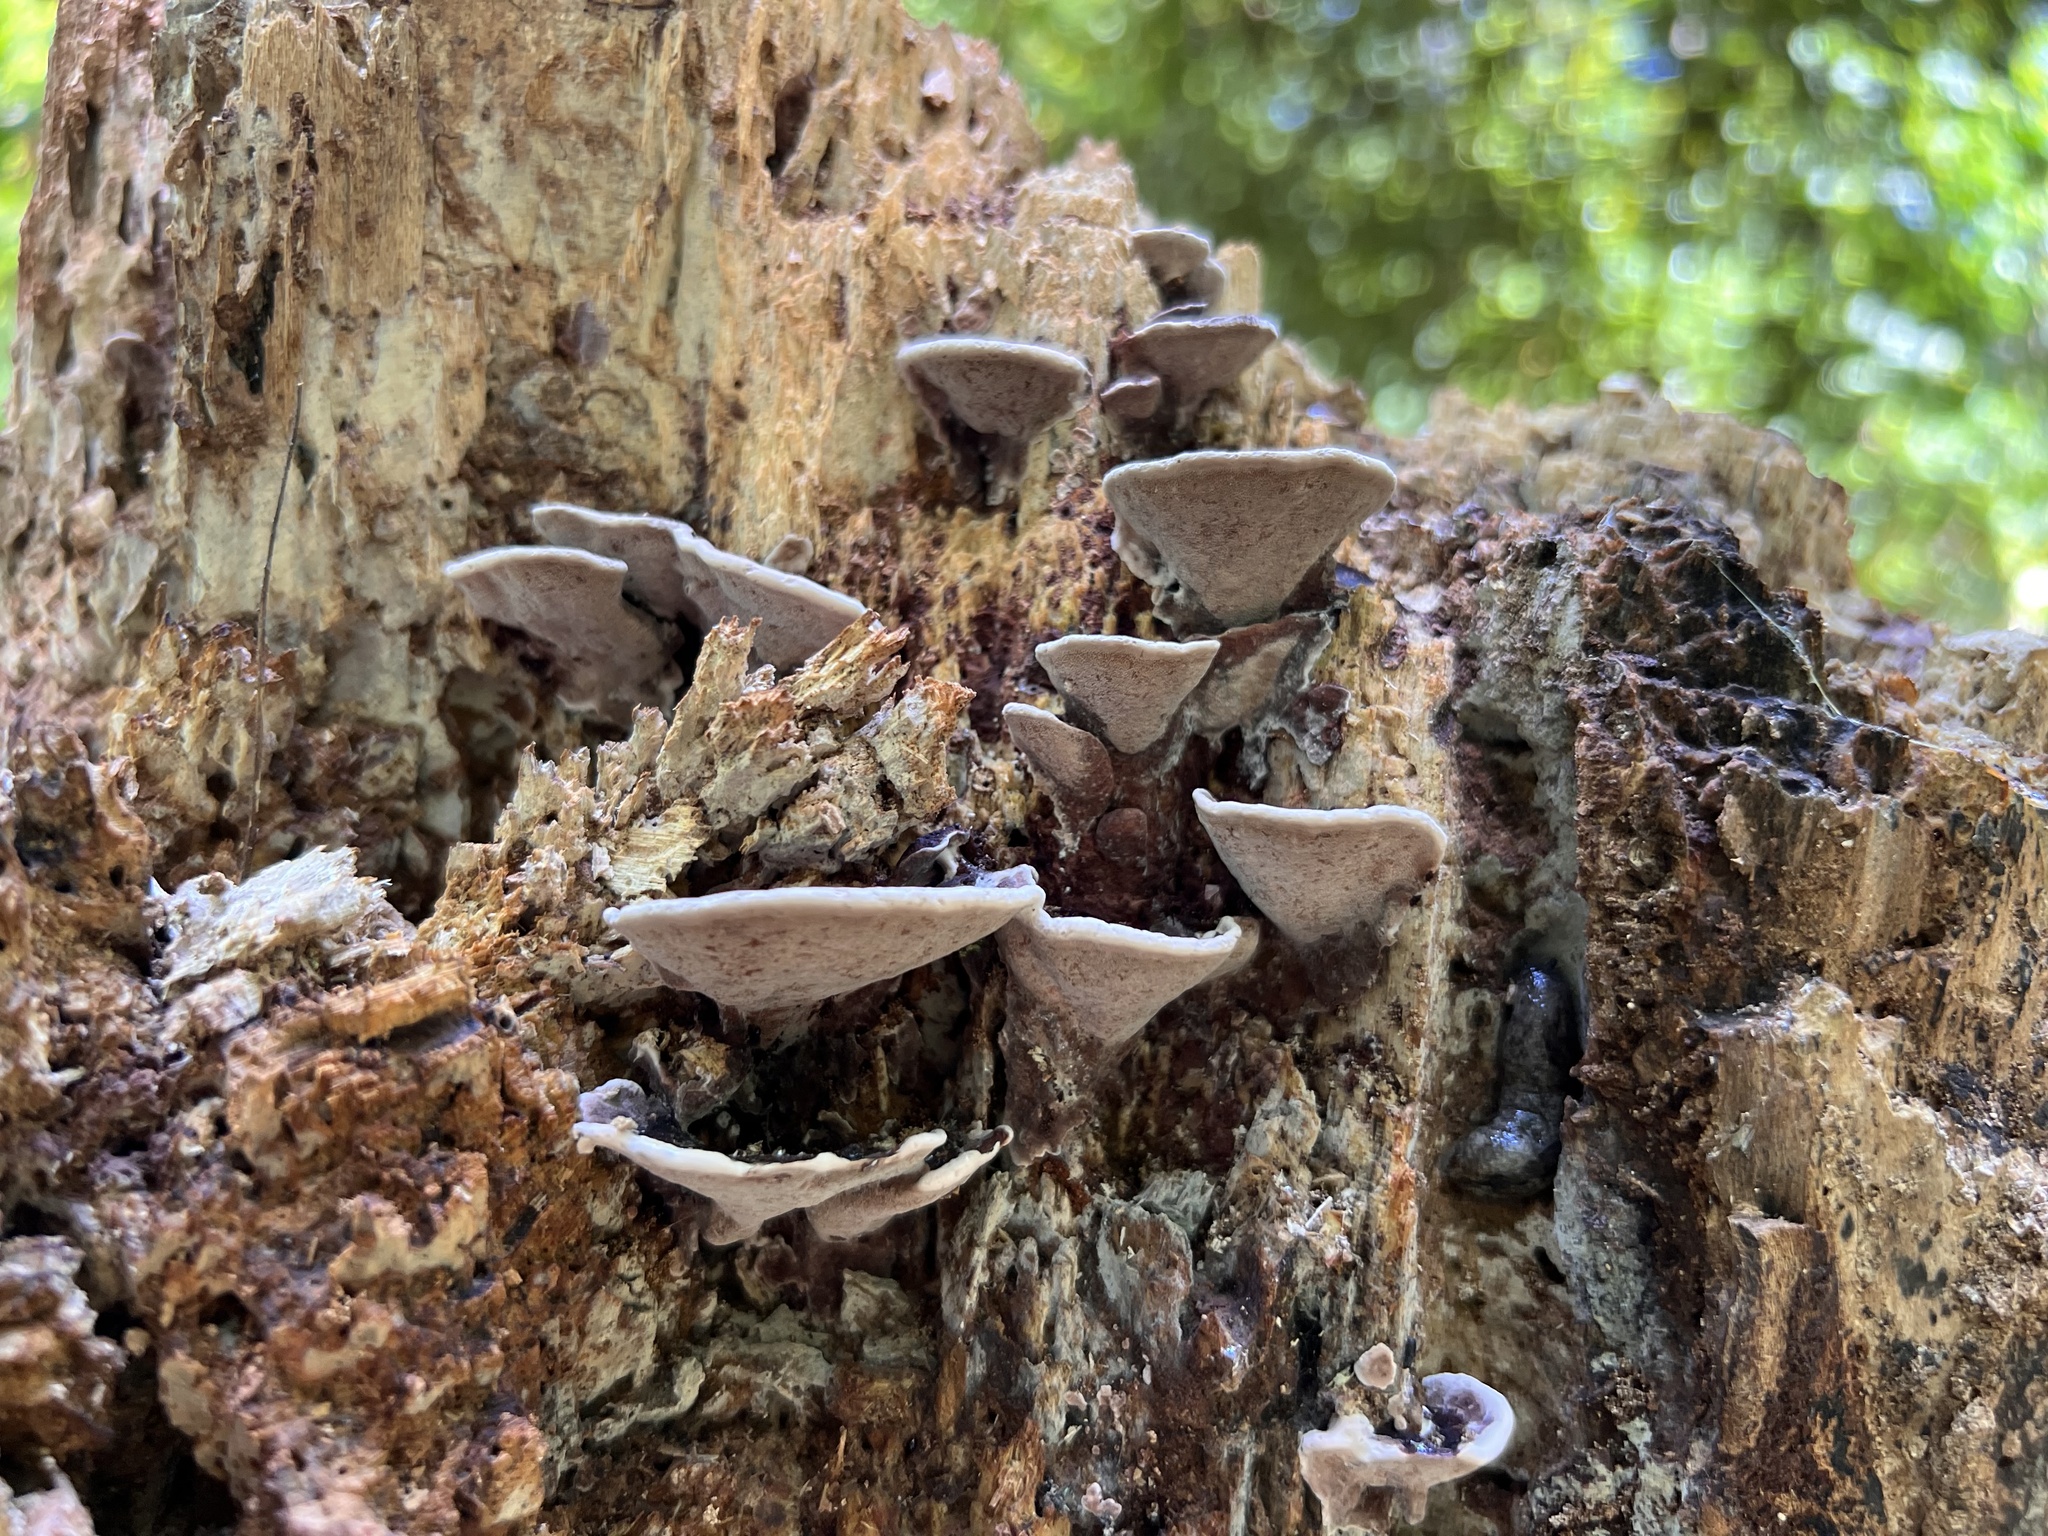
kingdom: Fungi
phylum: Basidiomycota
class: Agaricomycetes
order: Polyporales
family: Steccherinaceae
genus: Nigroporus
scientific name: Nigroporus vinosus
